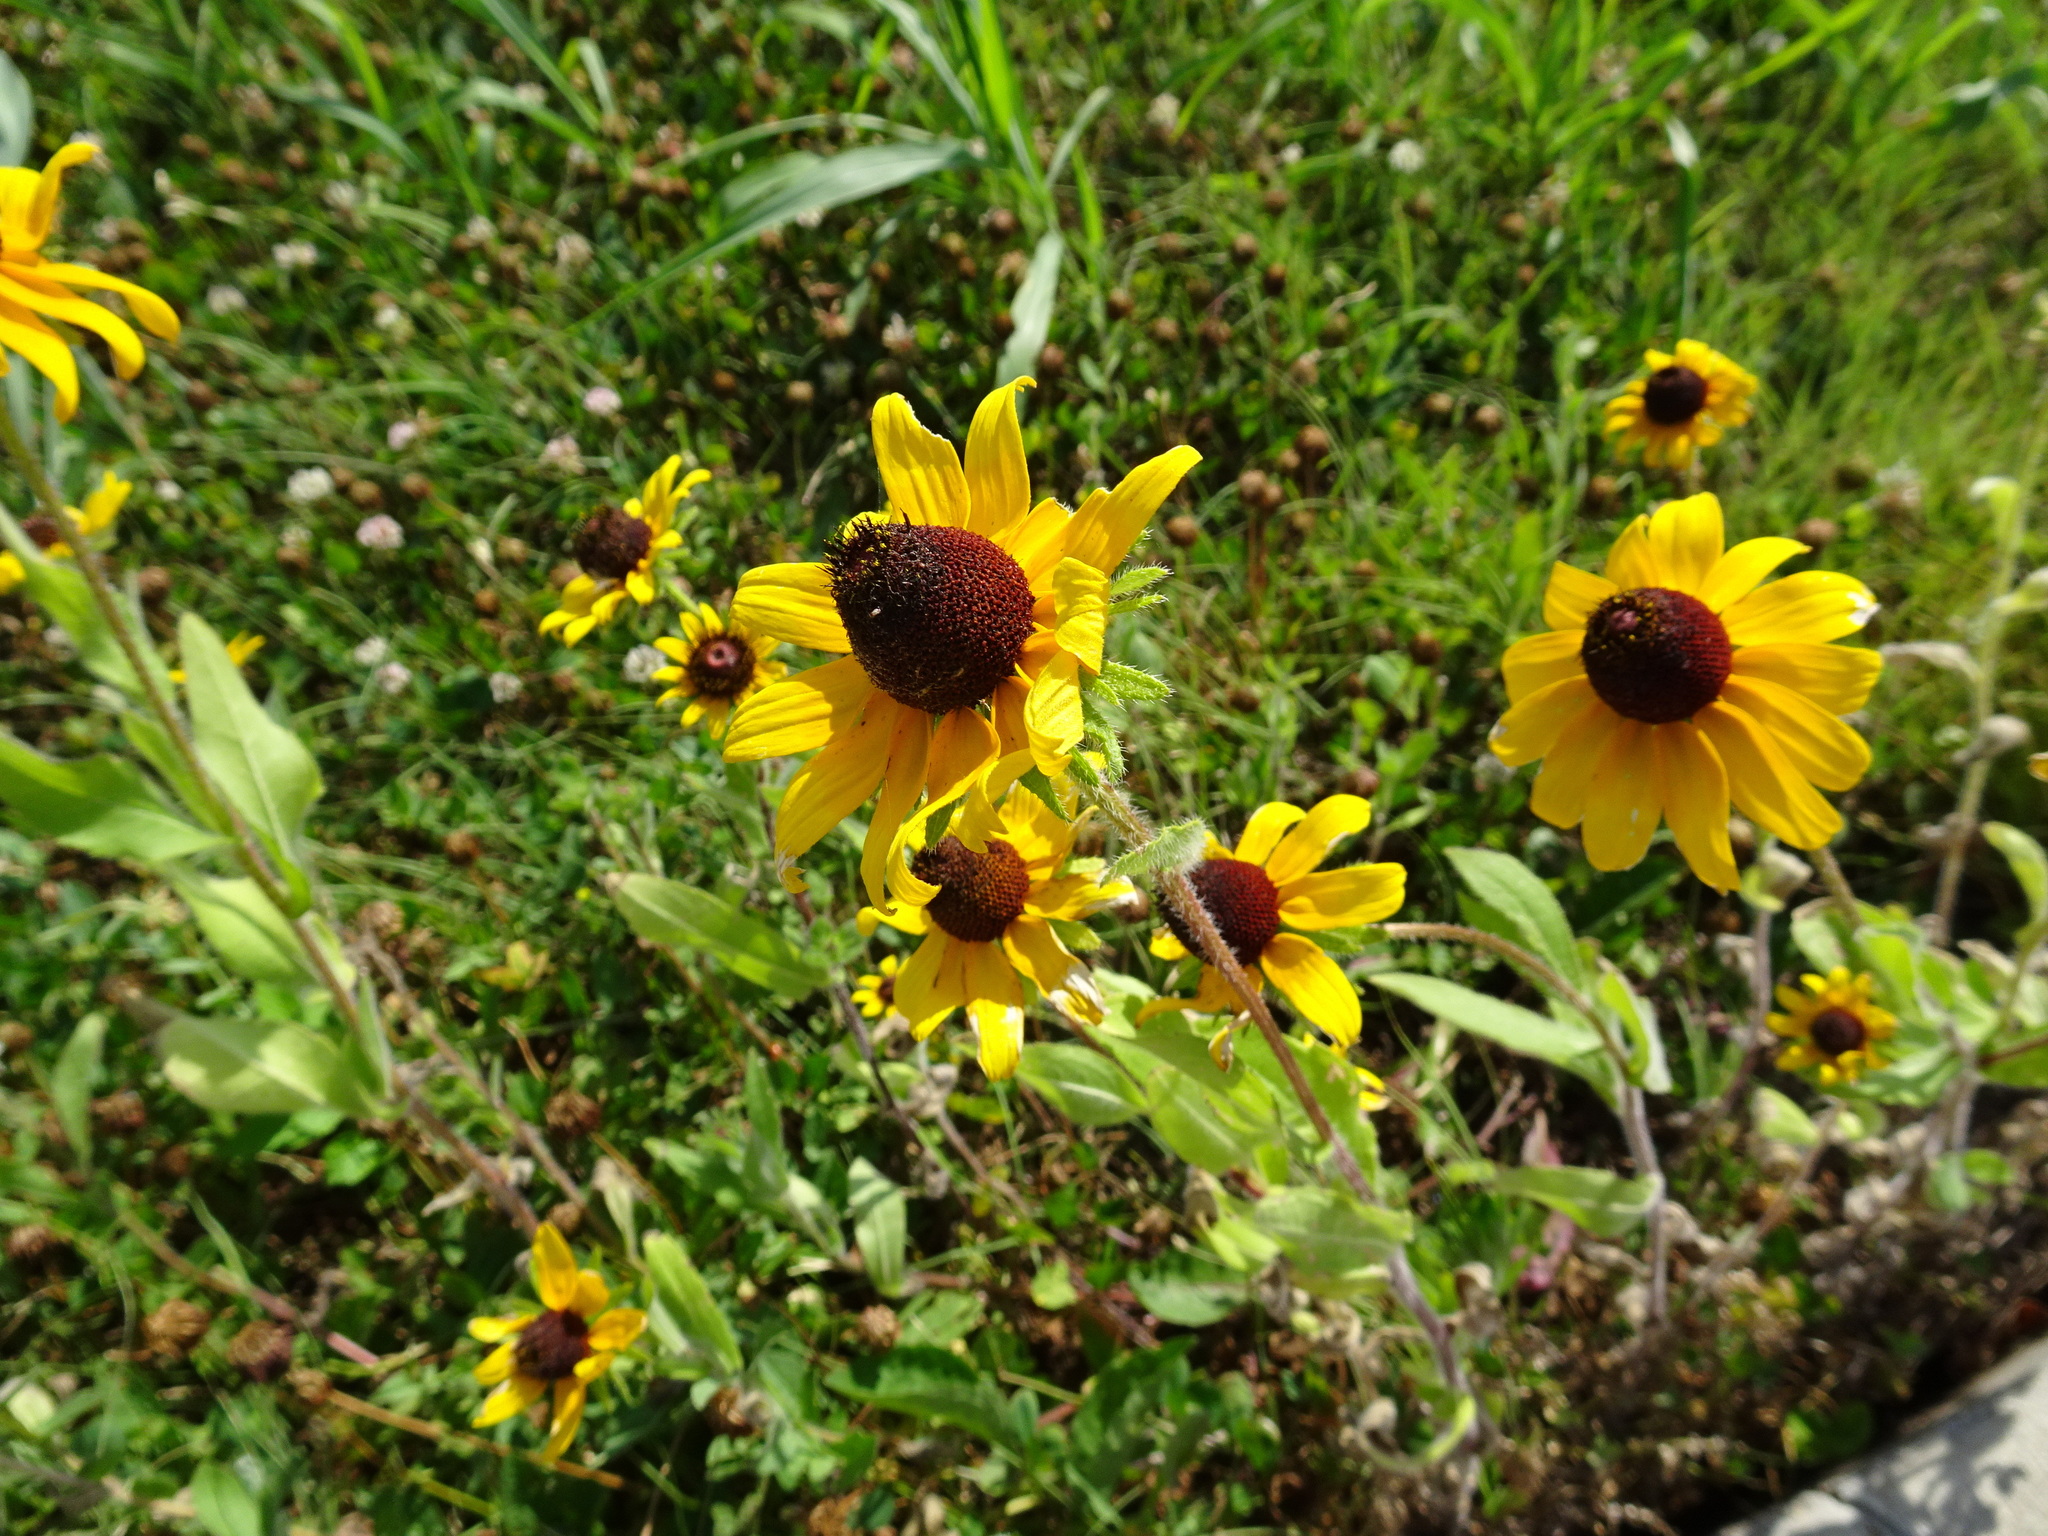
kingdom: Plantae
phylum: Tracheophyta
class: Magnoliopsida
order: Asterales
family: Asteraceae
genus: Rudbeckia
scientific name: Rudbeckia hirta
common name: Black-eyed-susan
